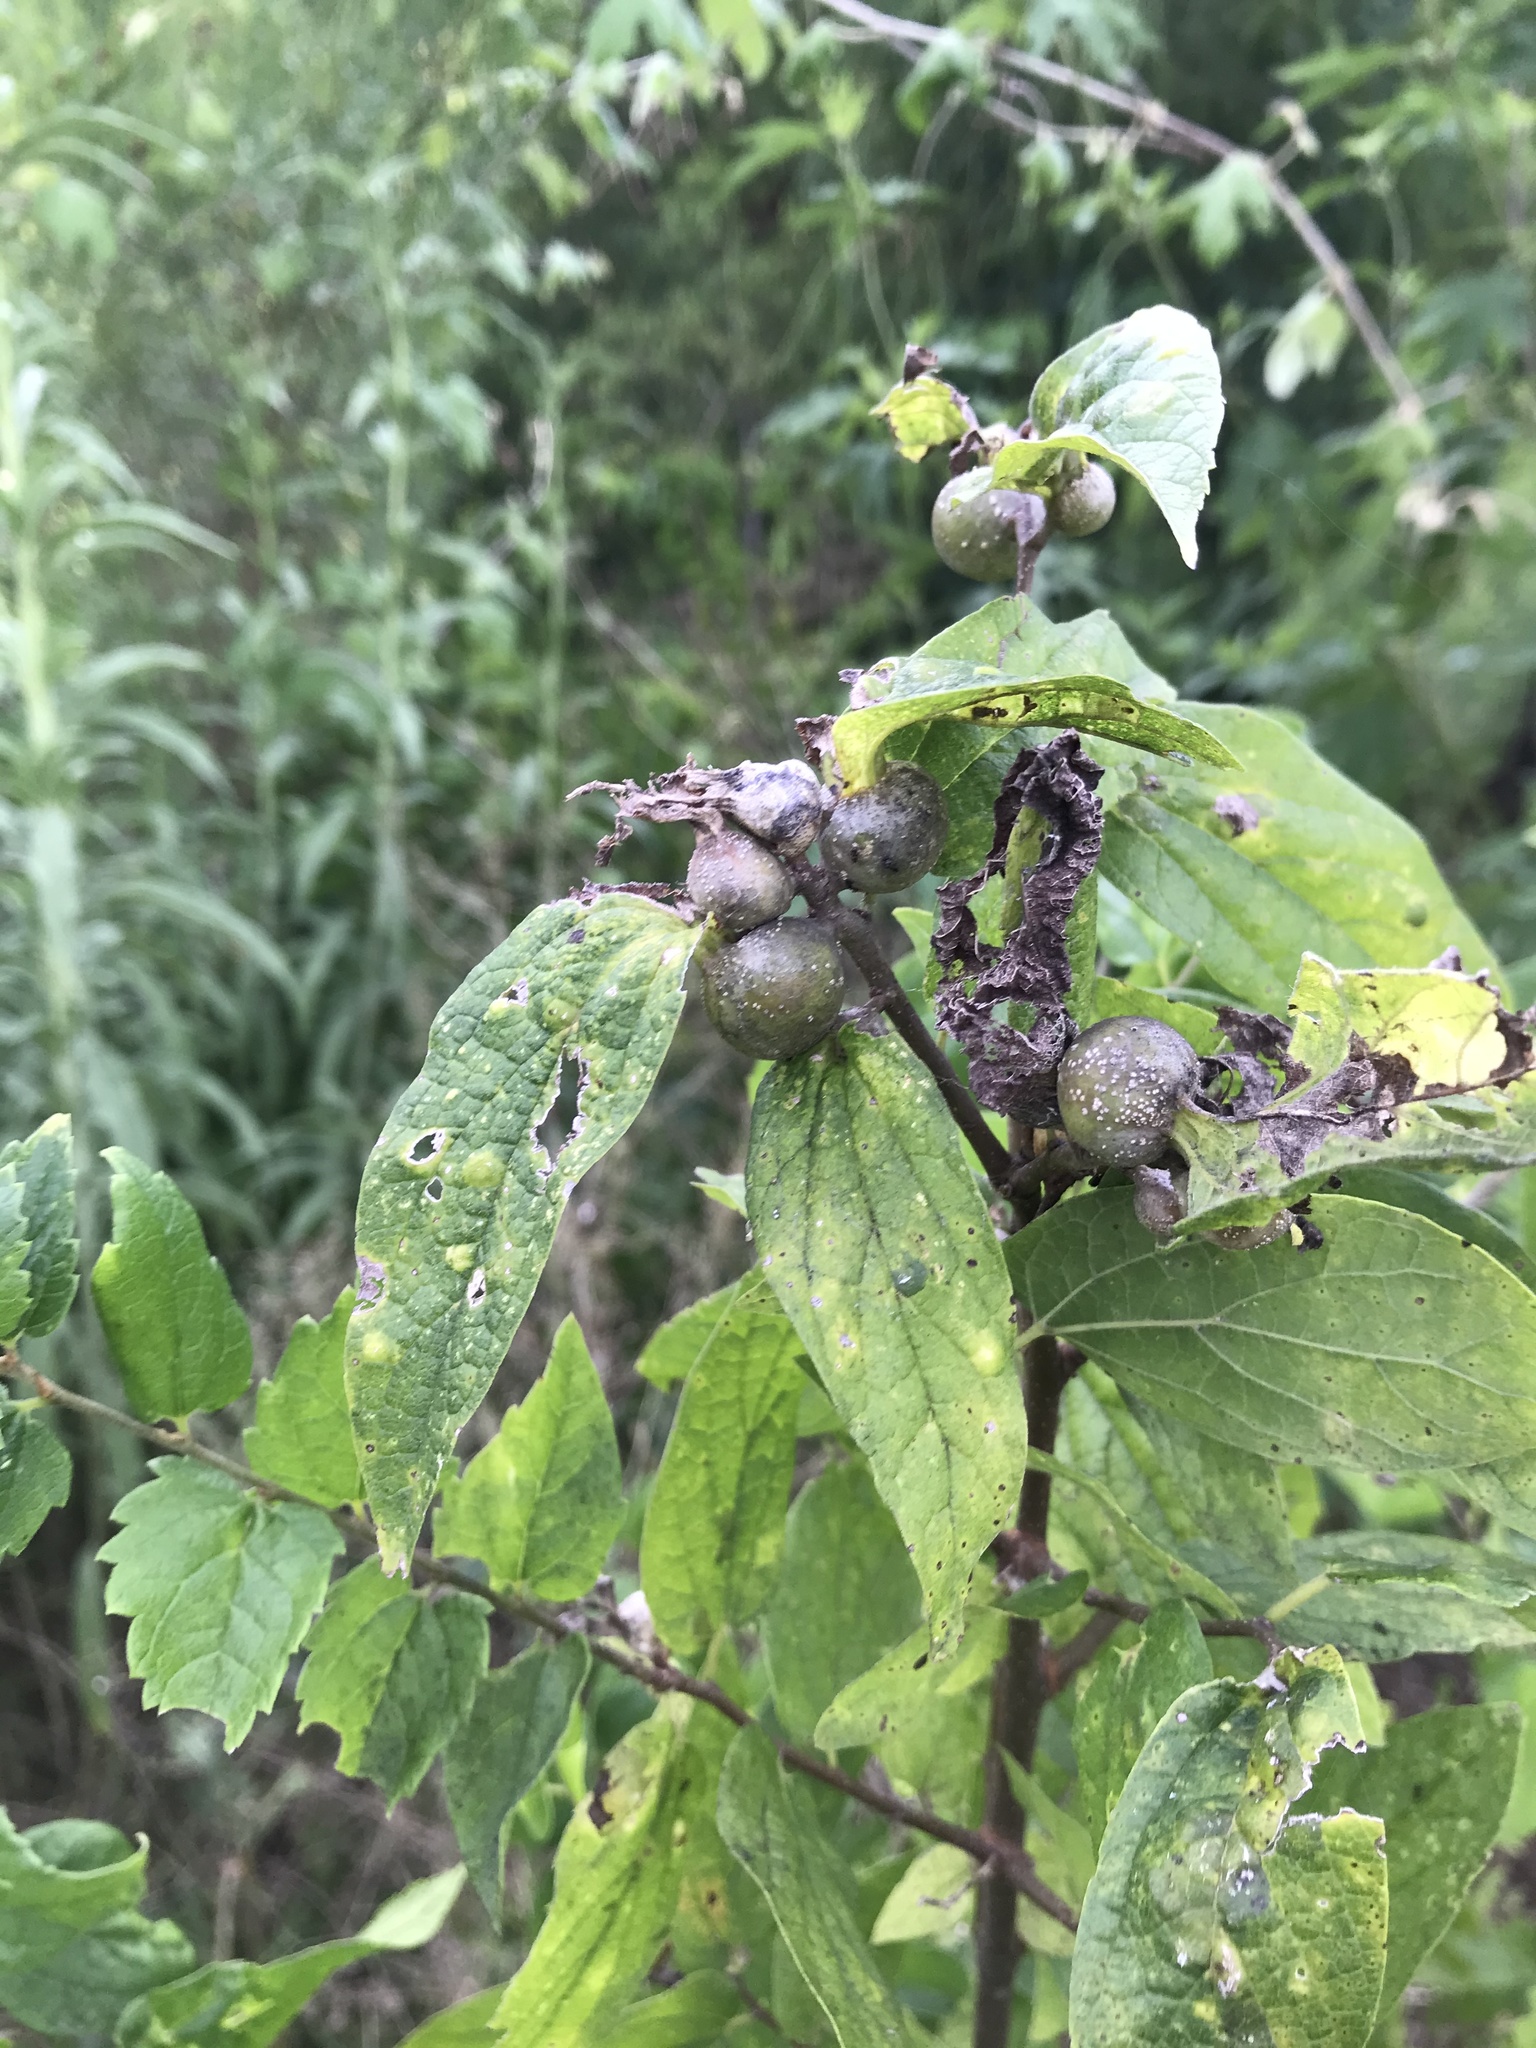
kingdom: Animalia
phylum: Arthropoda
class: Insecta
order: Hemiptera
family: Aphalaridae
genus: Pachypsylla
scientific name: Pachypsylla venusta
